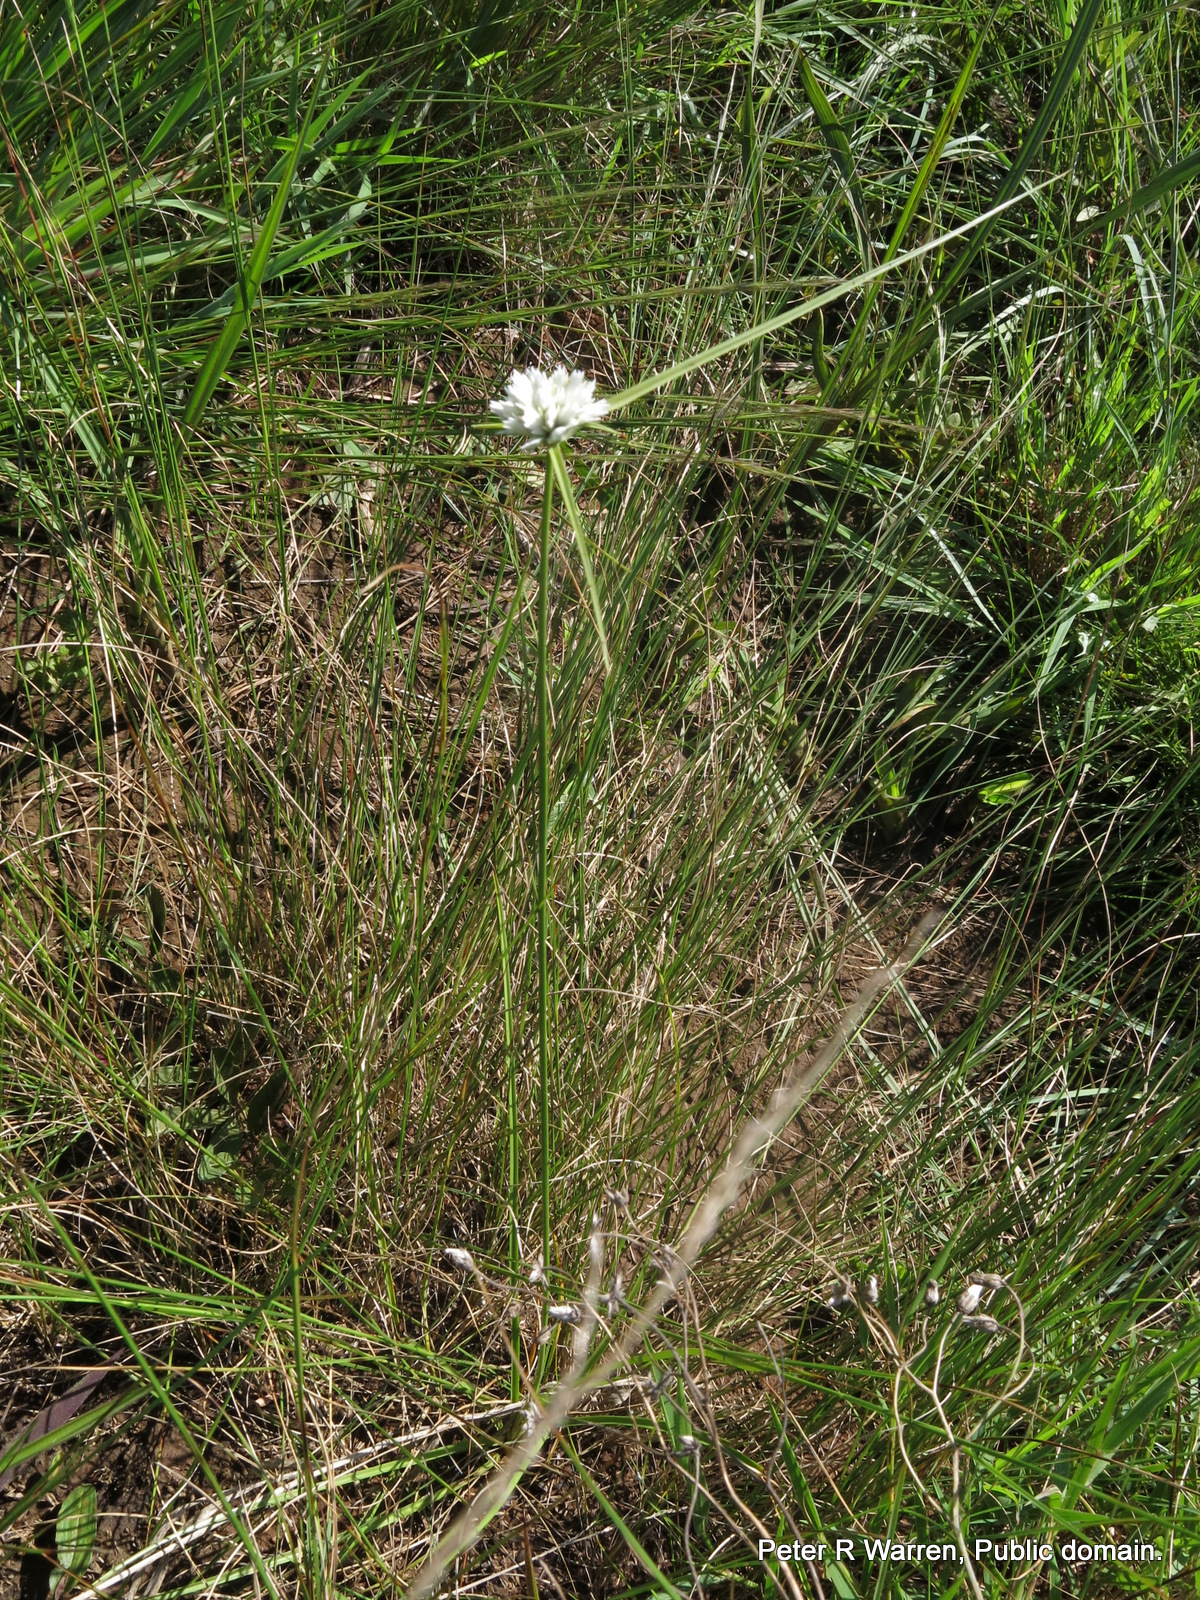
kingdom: Plantae
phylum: Tracheophyta
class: Liliopsida
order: Poales
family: Cyperaceae
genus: Cyperus
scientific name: Cyperus niveus
